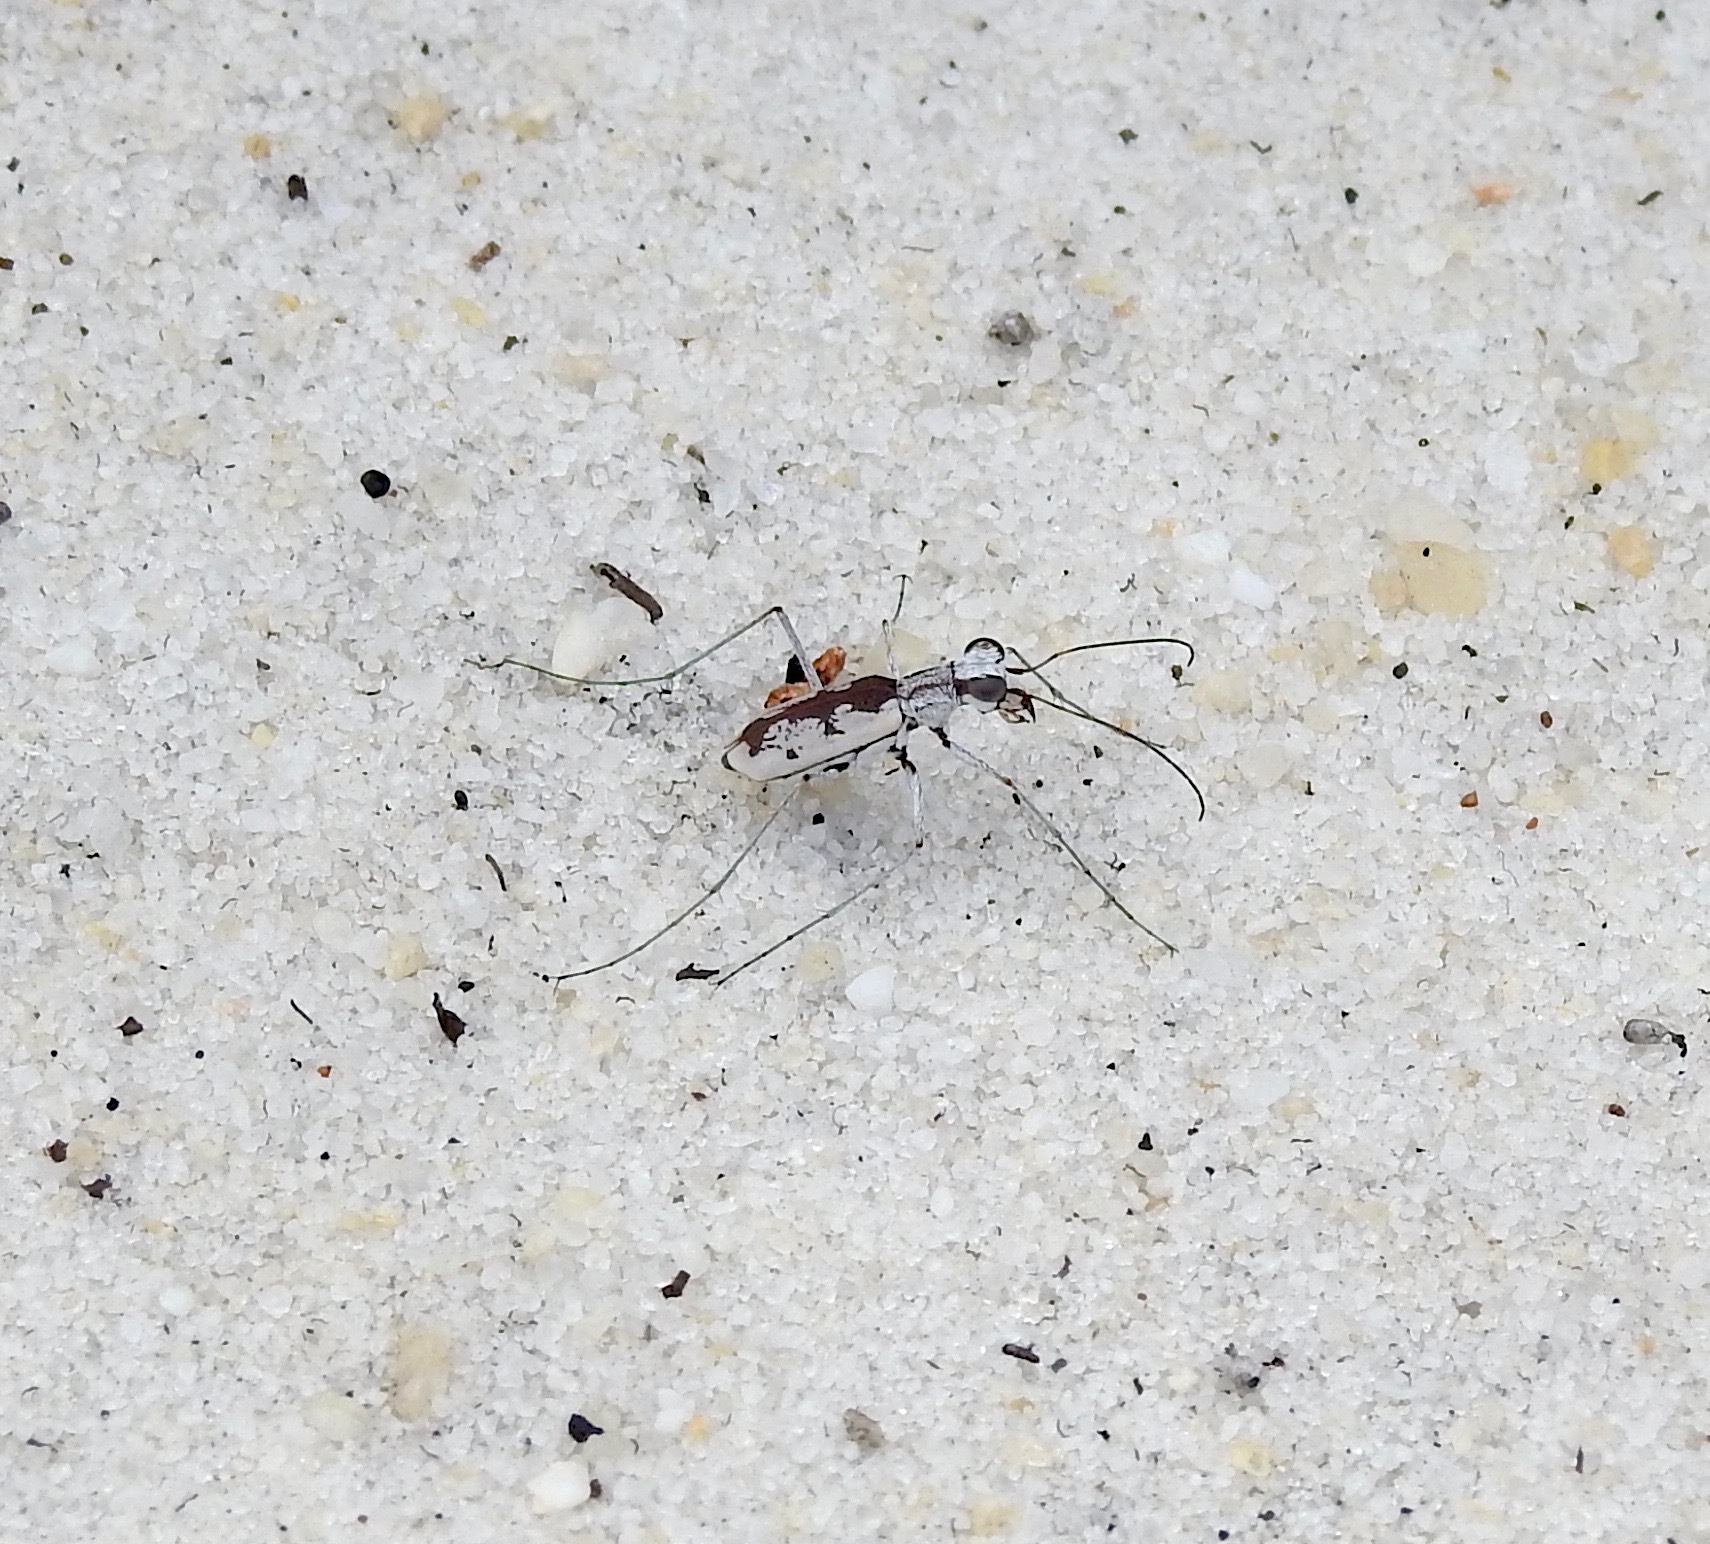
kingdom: Animalia
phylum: Arthropoda
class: Insecta
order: Coleoptera
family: Carabidae
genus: Ellipsoptera
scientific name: Ellipsoptera hirtilabris
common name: Moustached tiger beetle
